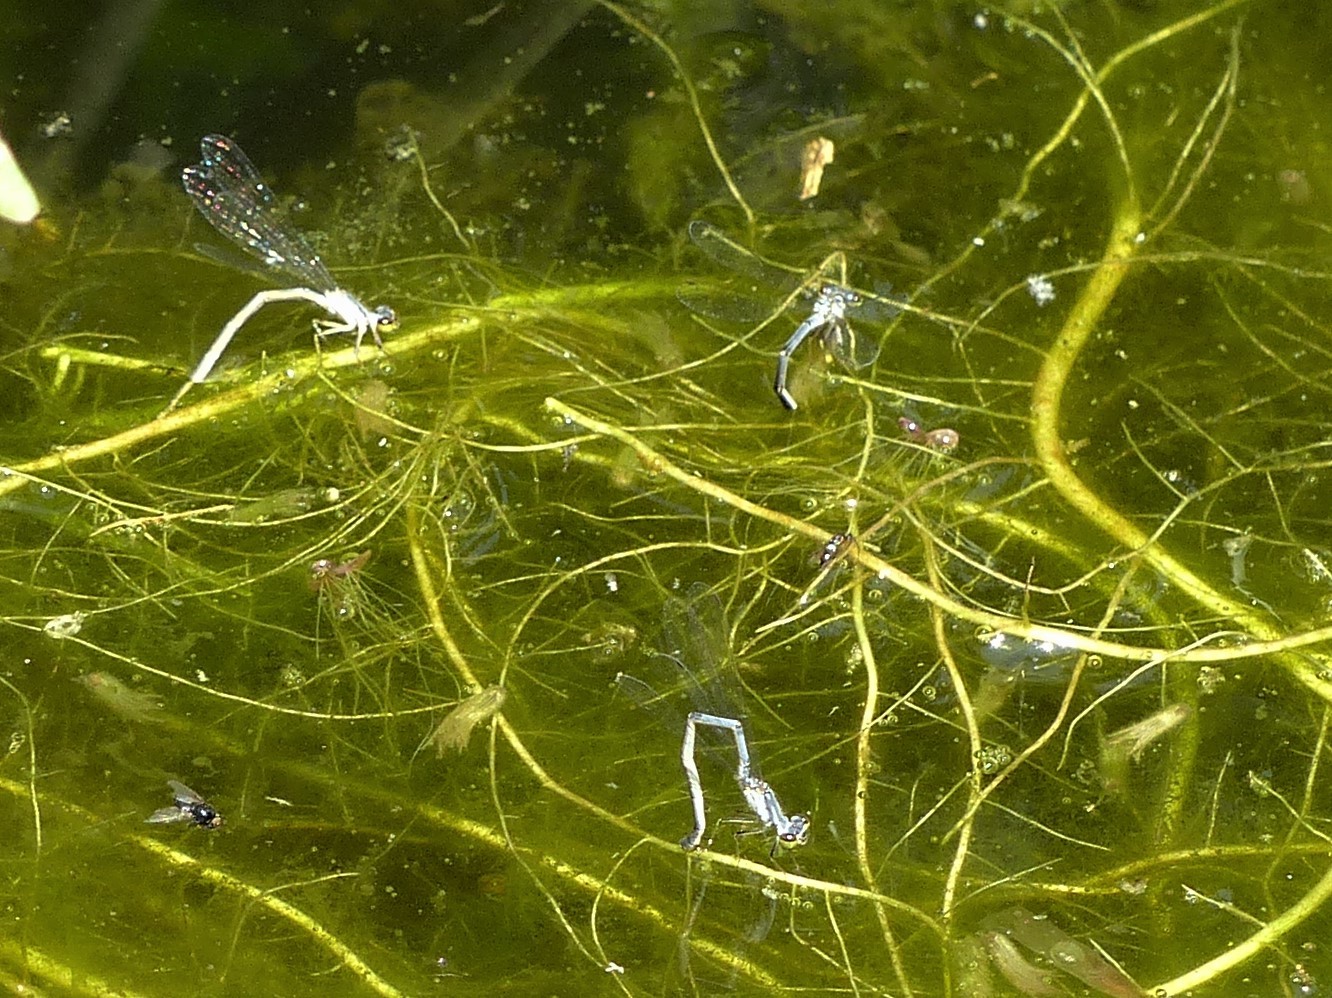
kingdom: Animalia
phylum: Arthropoda
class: Insecta
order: Odonata
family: Coenagrionidae
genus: Ischnura
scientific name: Ischnura posita
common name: Fragile forktail
